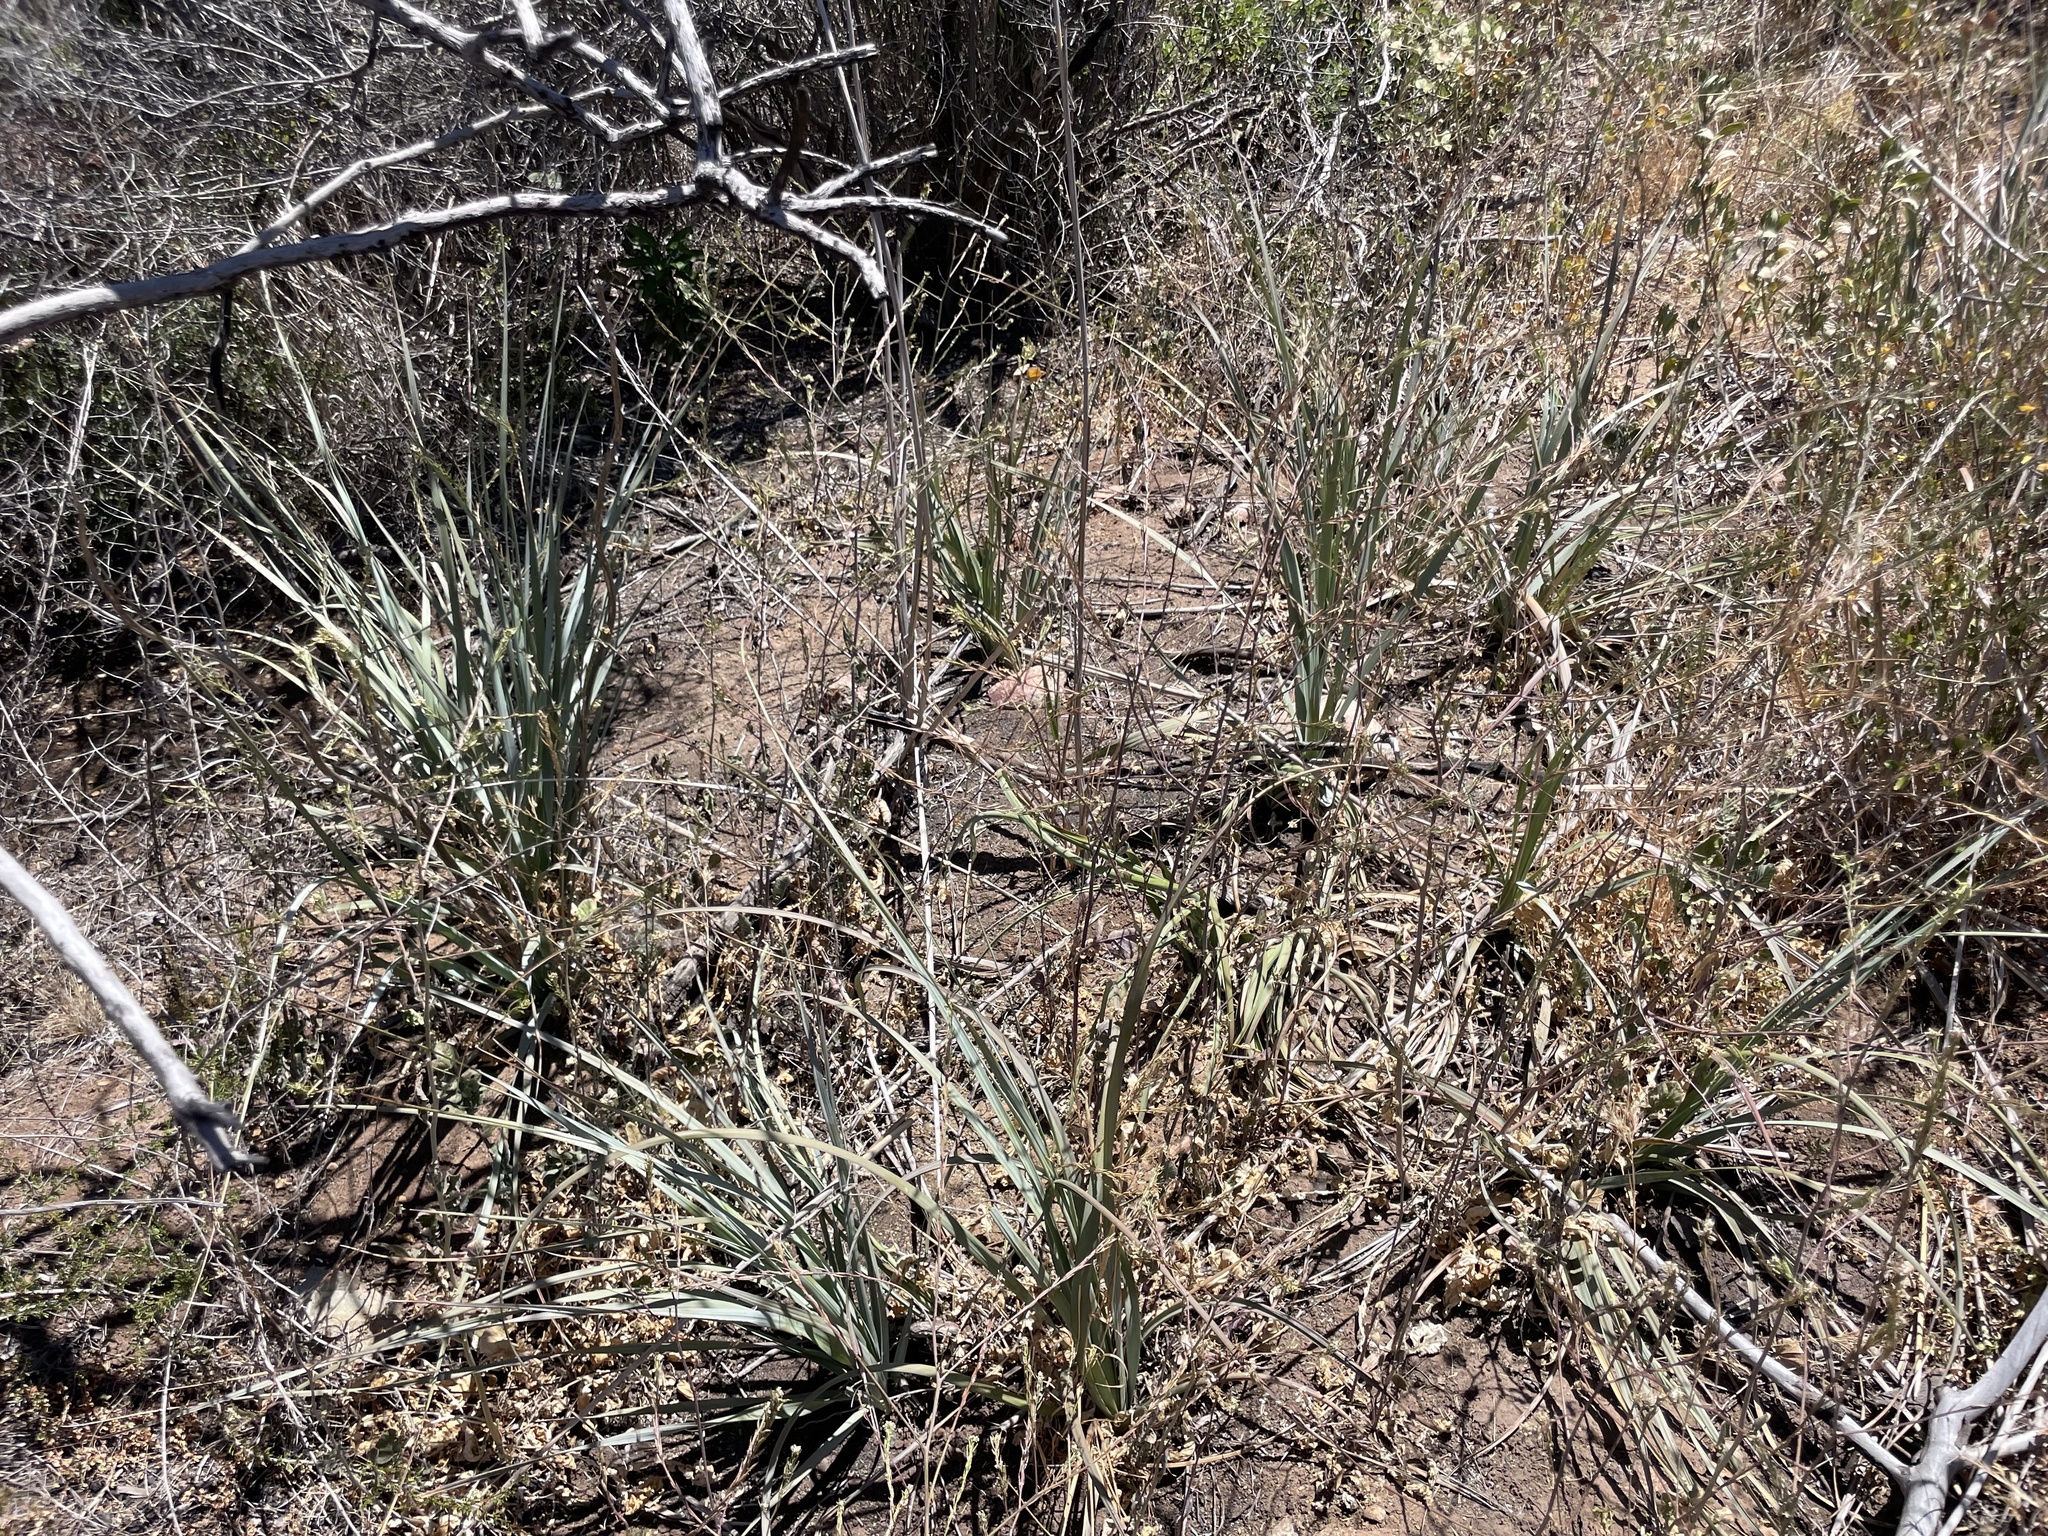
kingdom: Plantae
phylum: Tracheophyta
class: Liliopsida
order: Asparagales
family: Asparagaceae
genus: Nolina
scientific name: Nolina interrata
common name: Dehesa bear-grass
